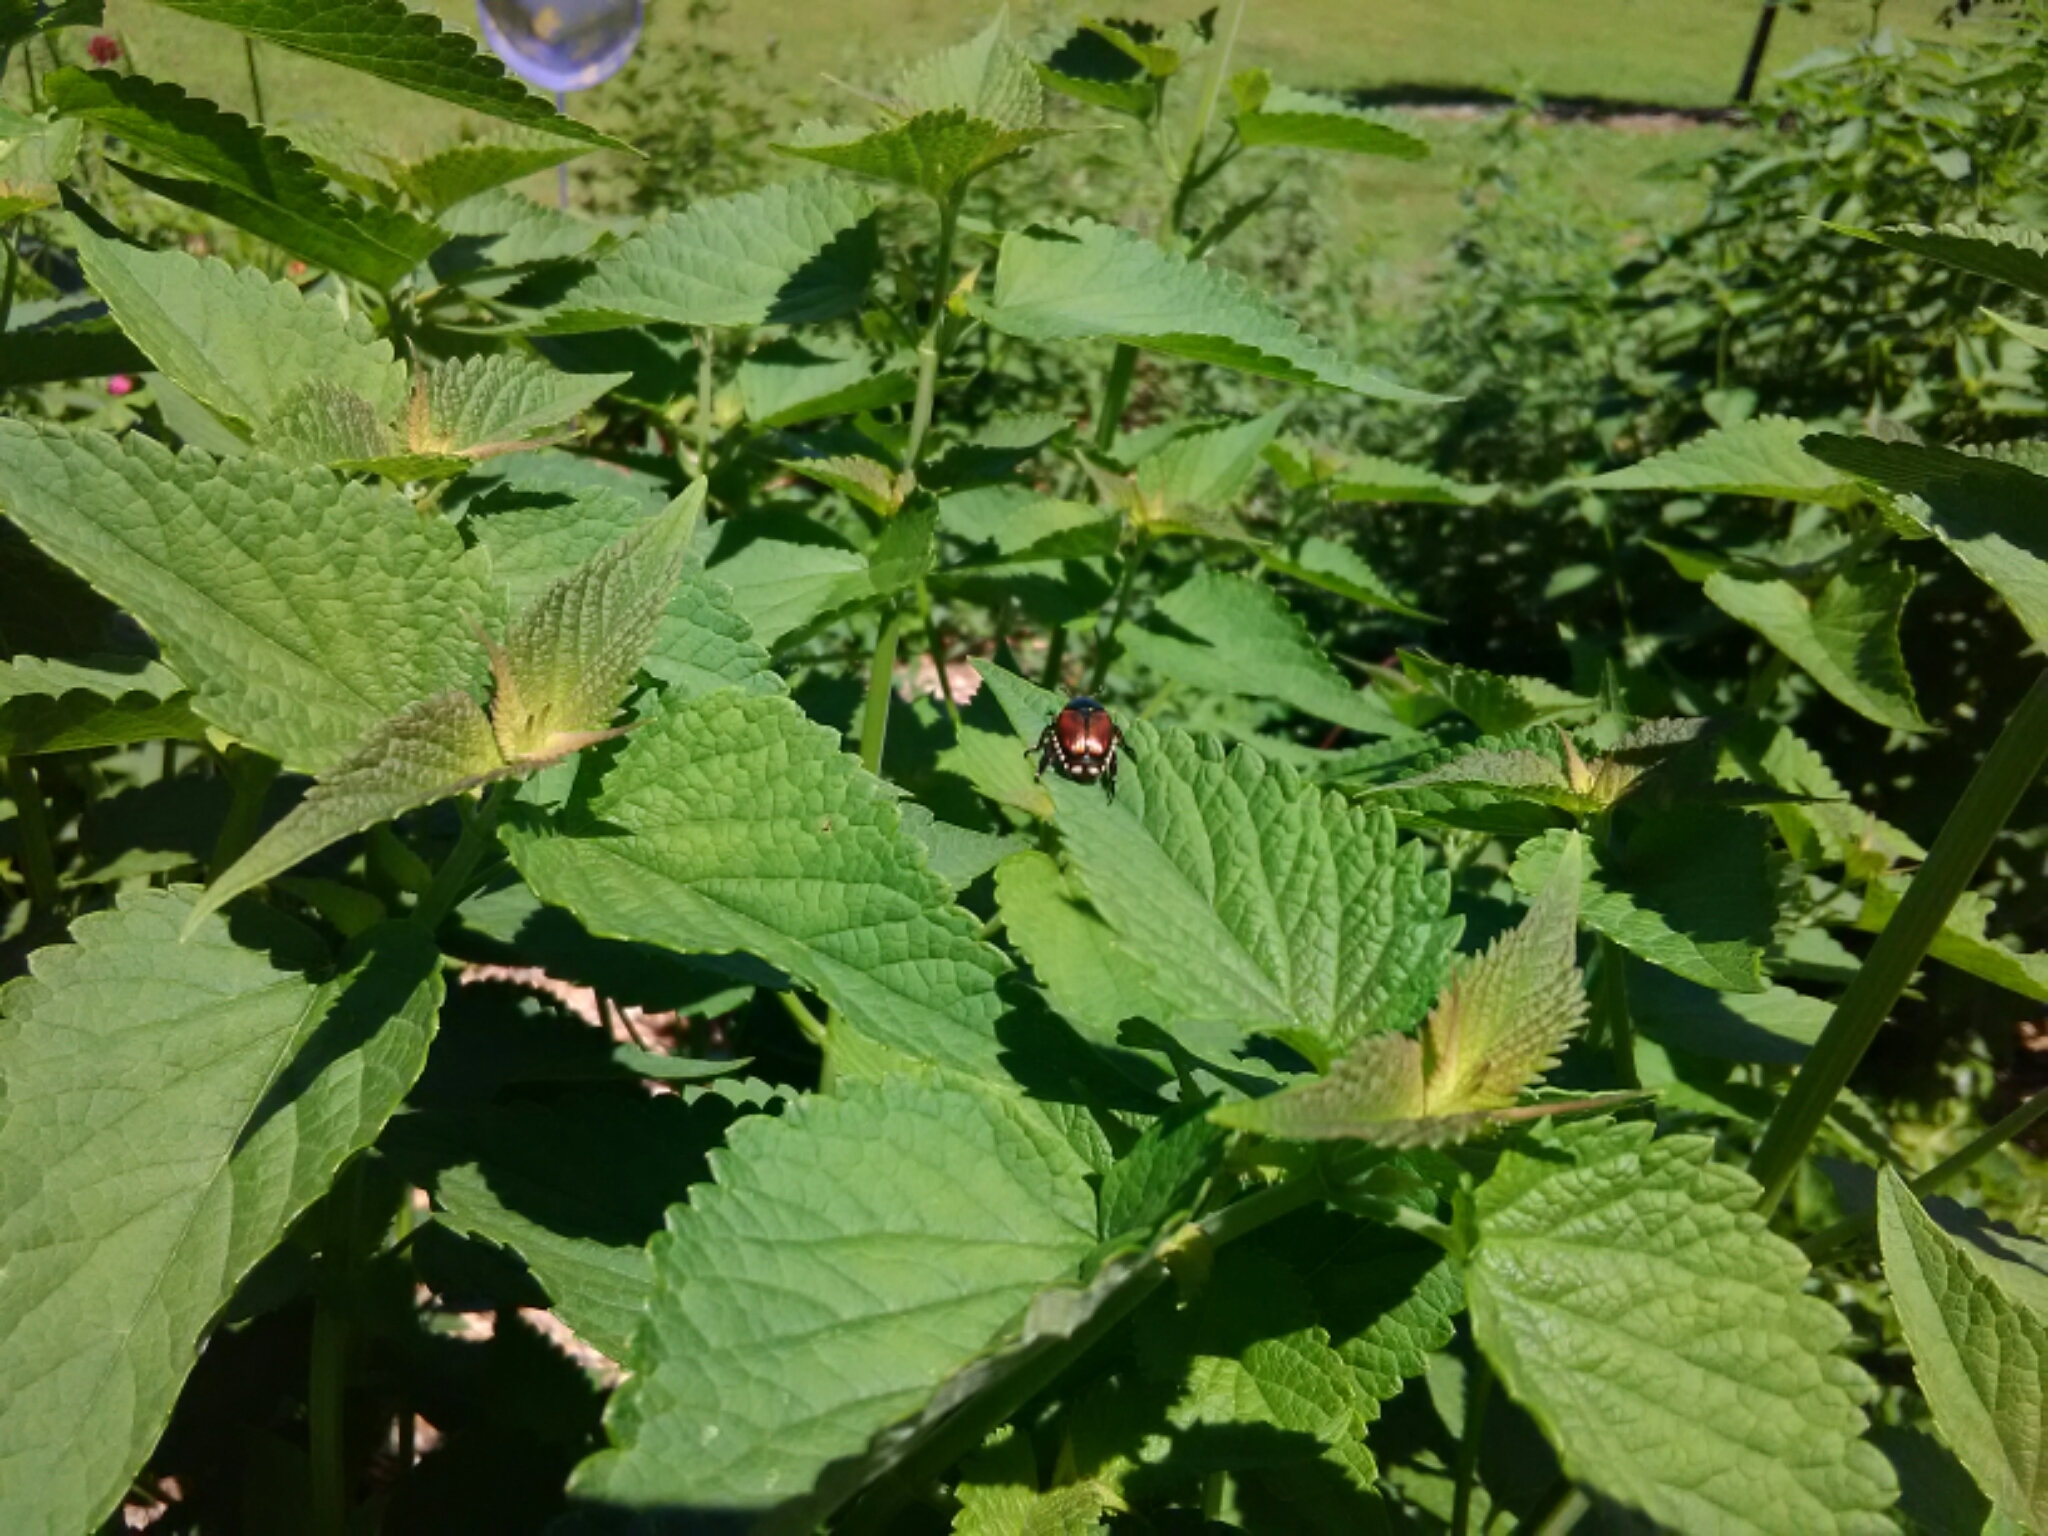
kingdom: Animalia
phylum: Arthropoda
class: Insecta
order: Coleoptera
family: Scarabaeidae
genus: Popillia
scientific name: Popillia japonica
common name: Japanese beetle
